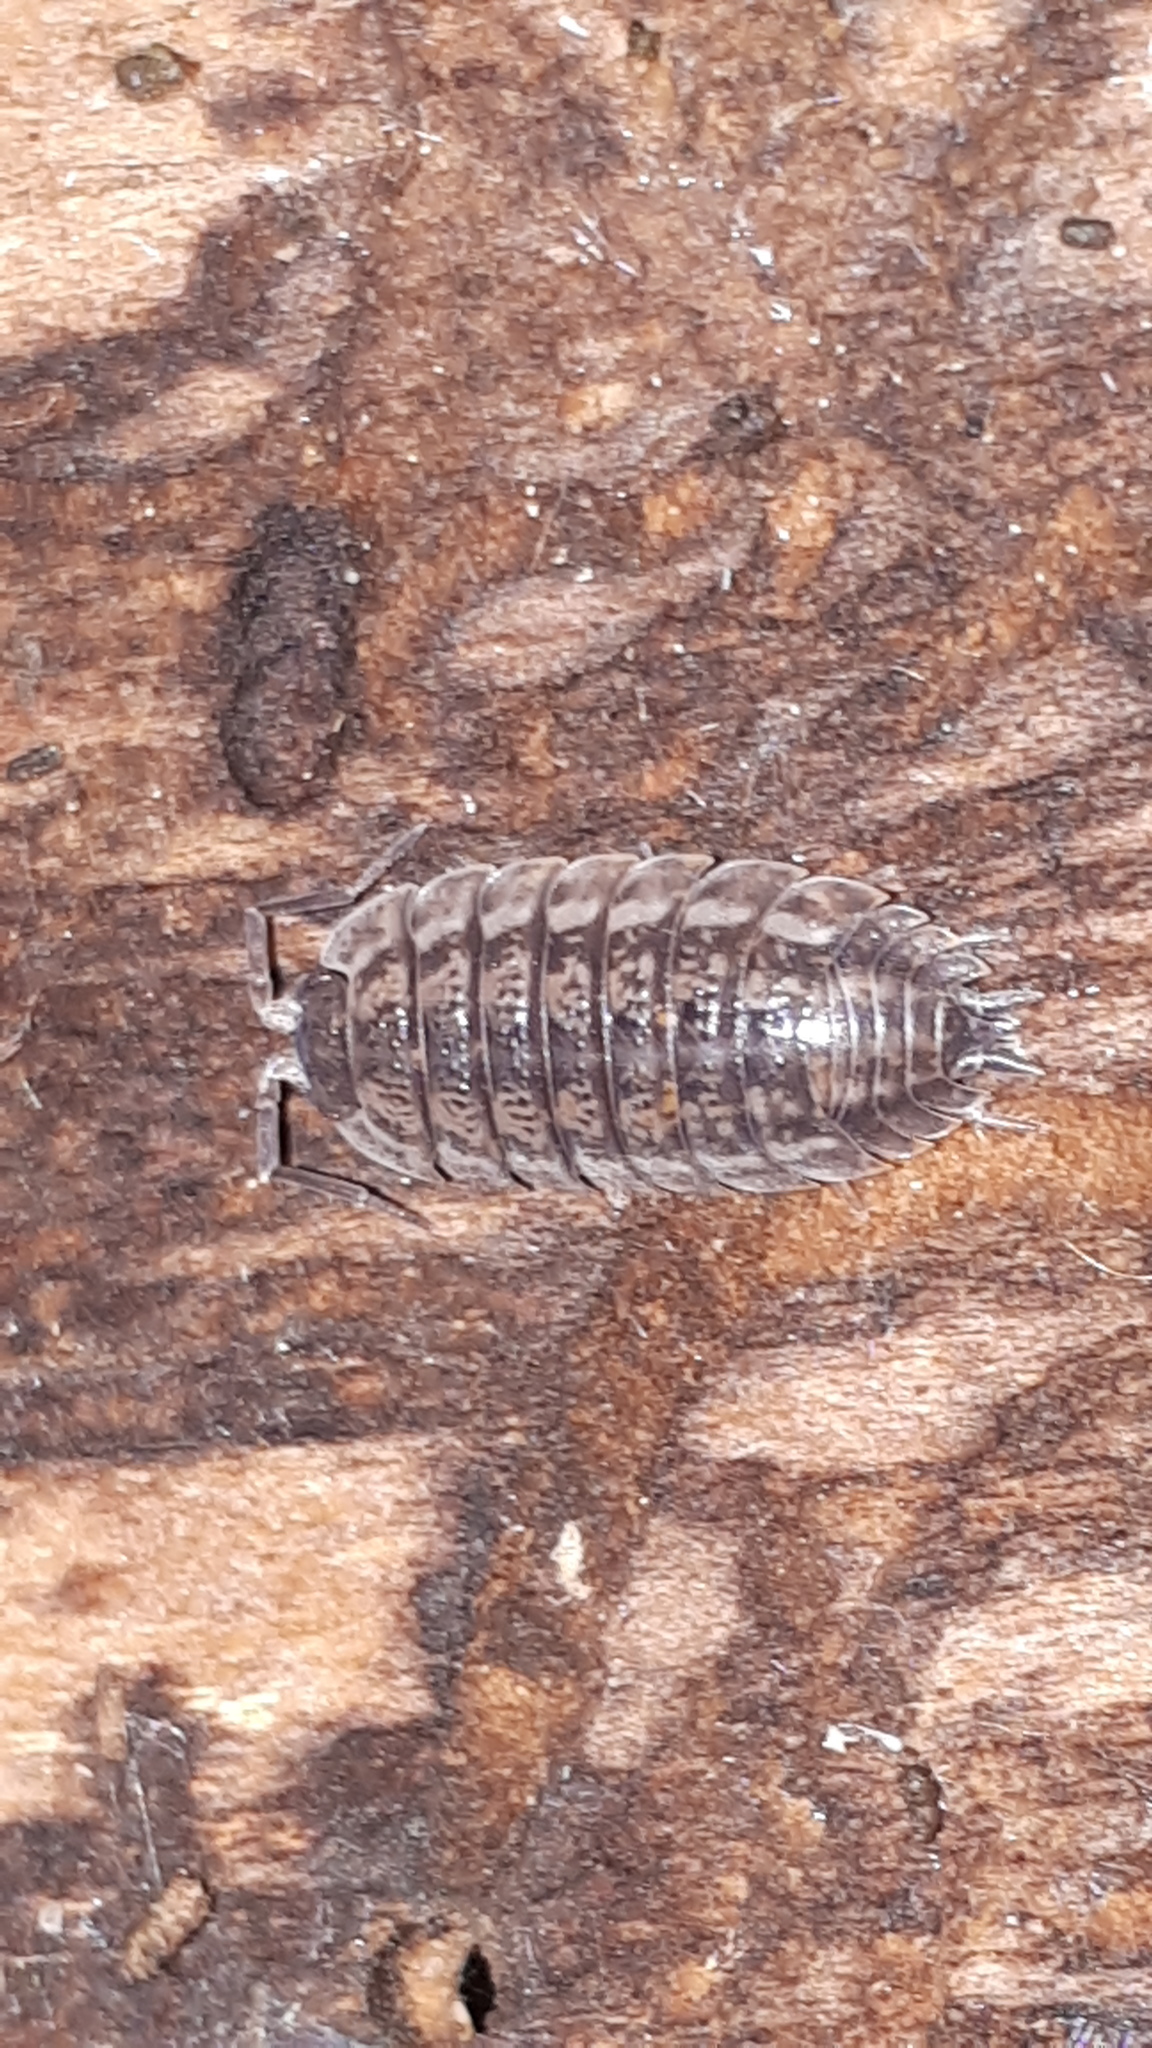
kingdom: Animalia
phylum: Arthropoda
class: Malacostraca
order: Isopoda
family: Trachelipodidae
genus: Trachelipus
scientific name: Trachelipus rathkii
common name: Isopod
